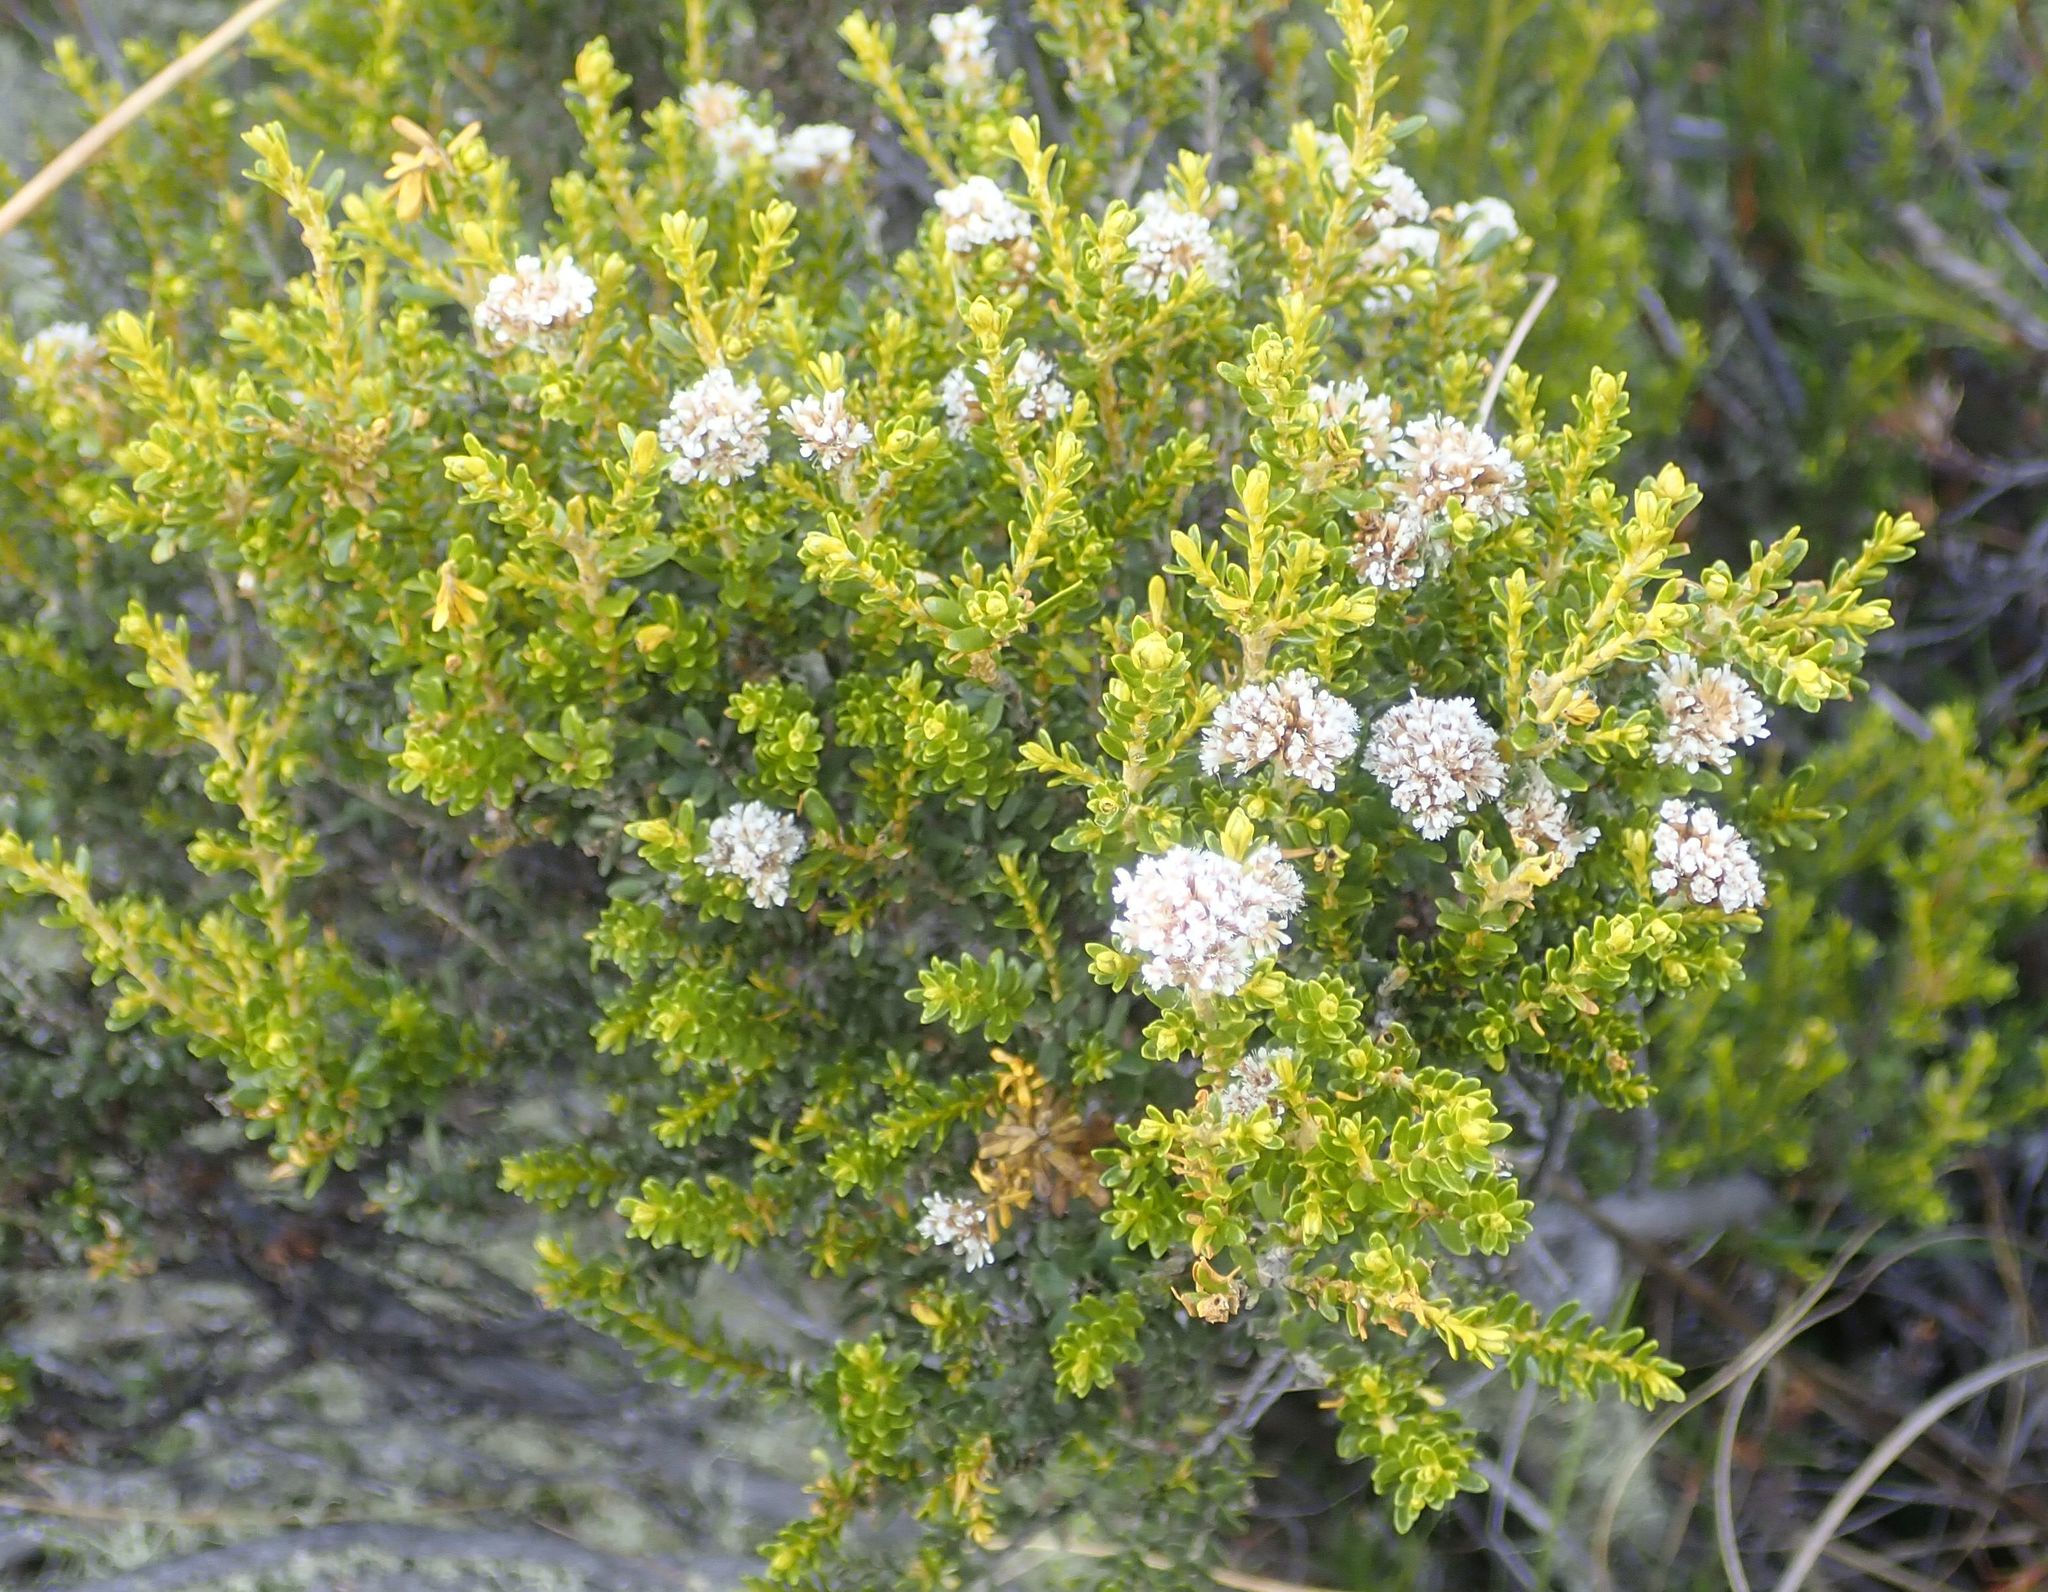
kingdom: Plantae
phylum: Tracheophyta
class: Magnoliopsida
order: Asterales
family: Asteraceae
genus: Ozothamnus
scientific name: Ozothamnus leptophyllus
